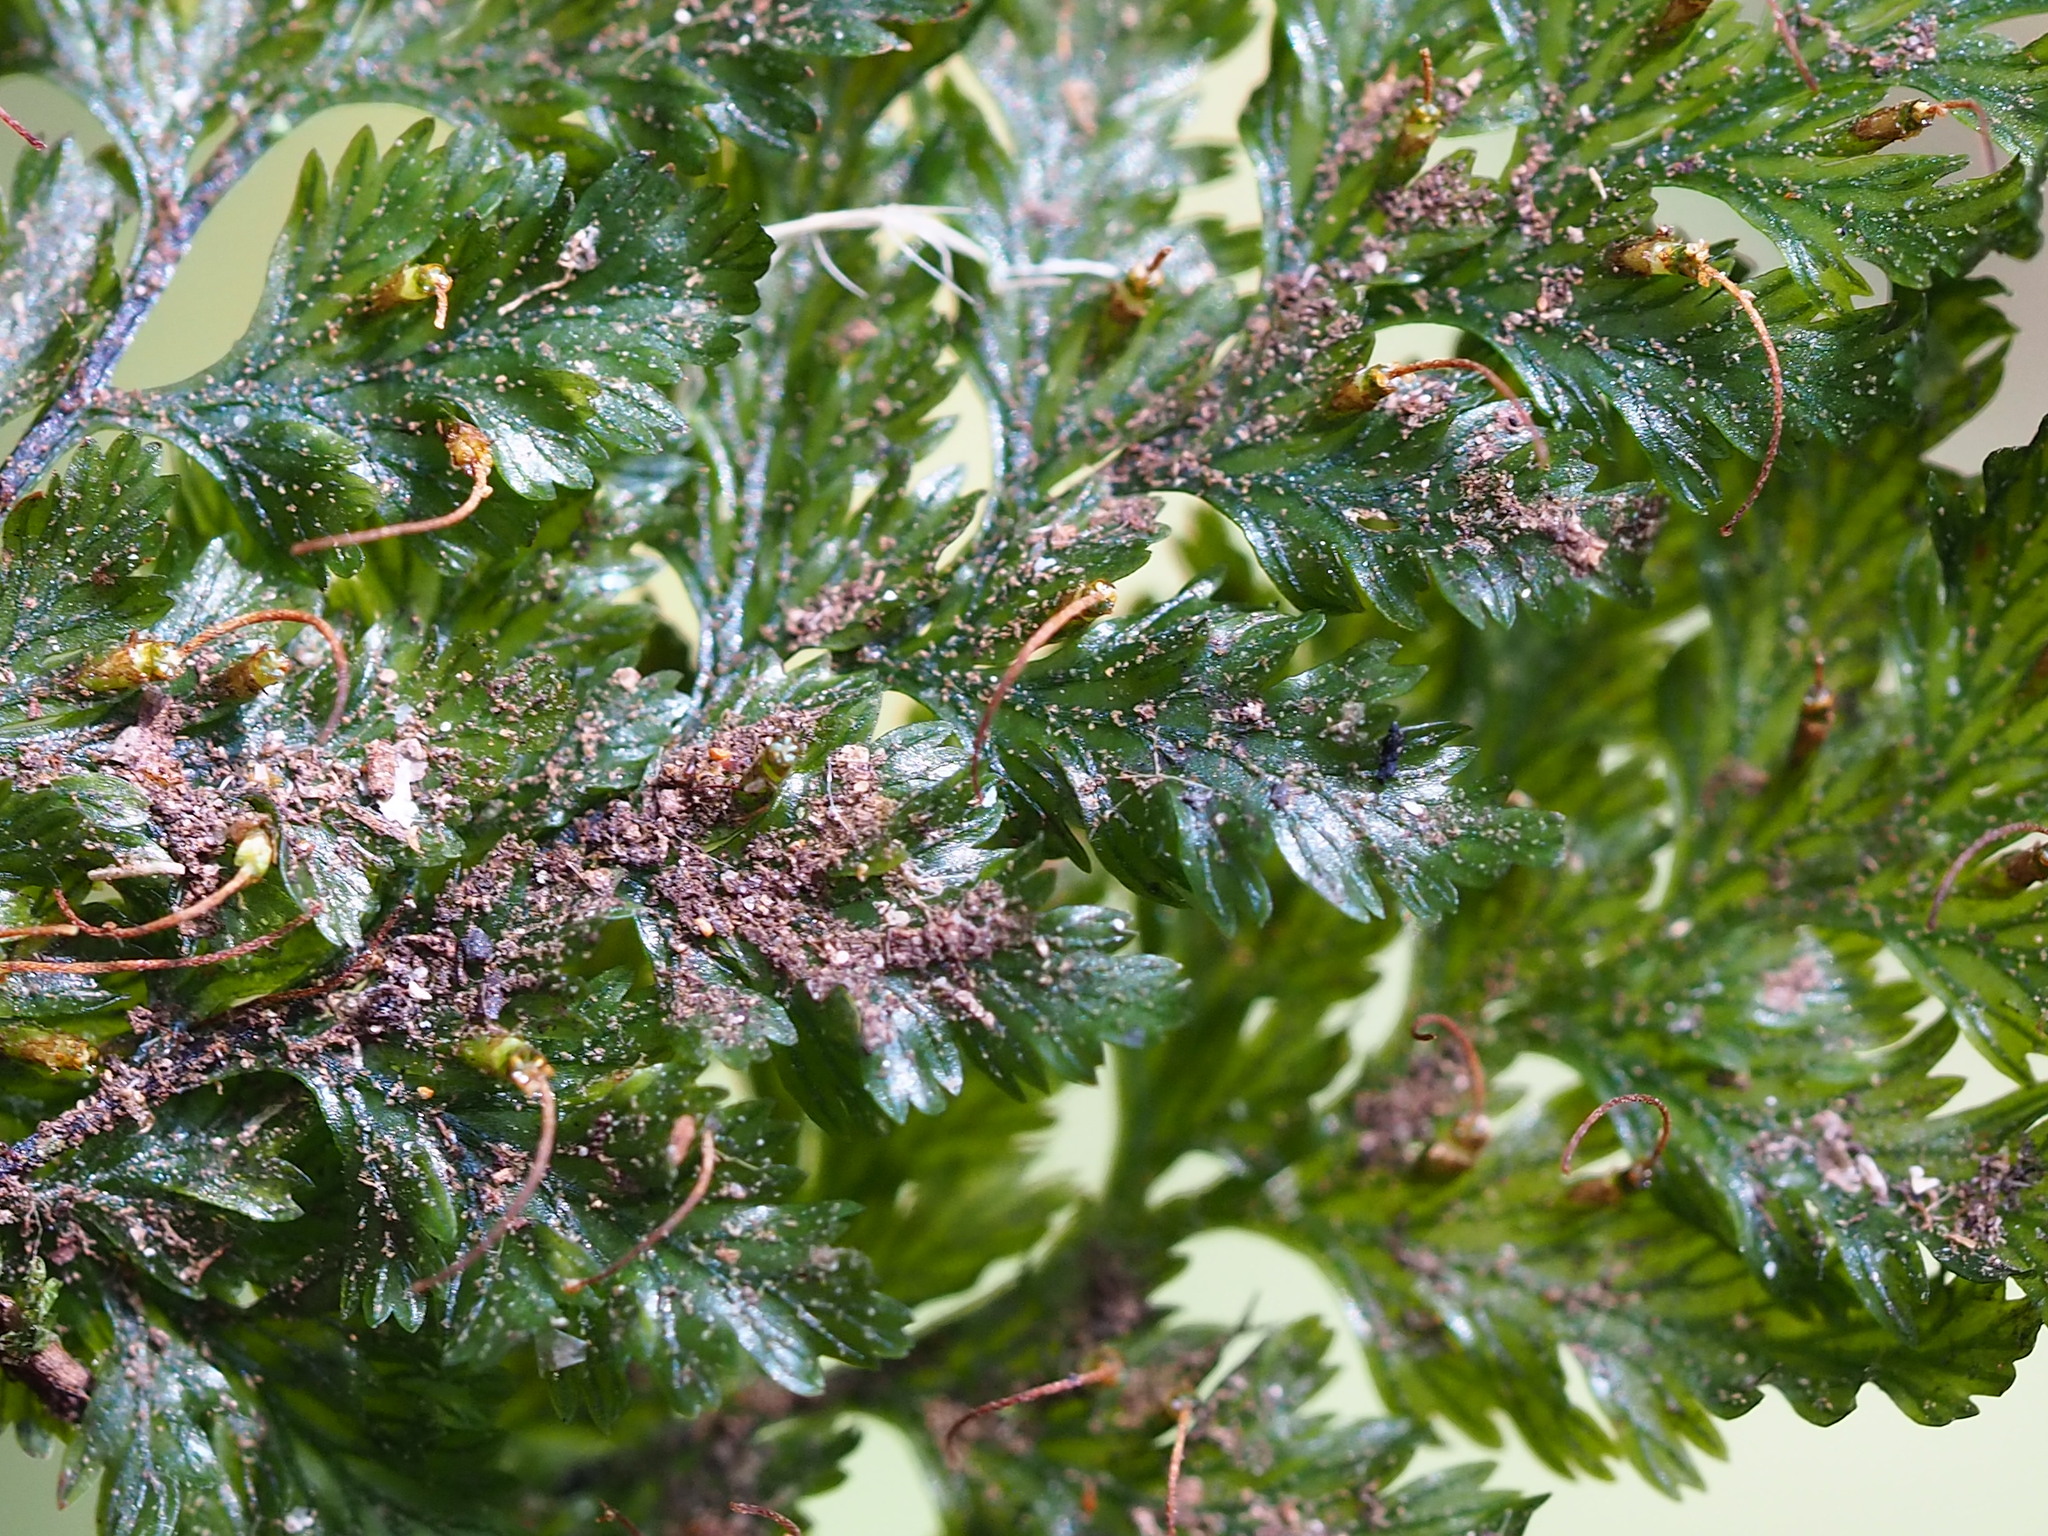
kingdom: Plantae
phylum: Tracheophyta
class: Polypodiopsida
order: Hymenophyllales
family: Hymenophyllaceae
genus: Abrodictyum
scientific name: Abrodictyum obscurum
